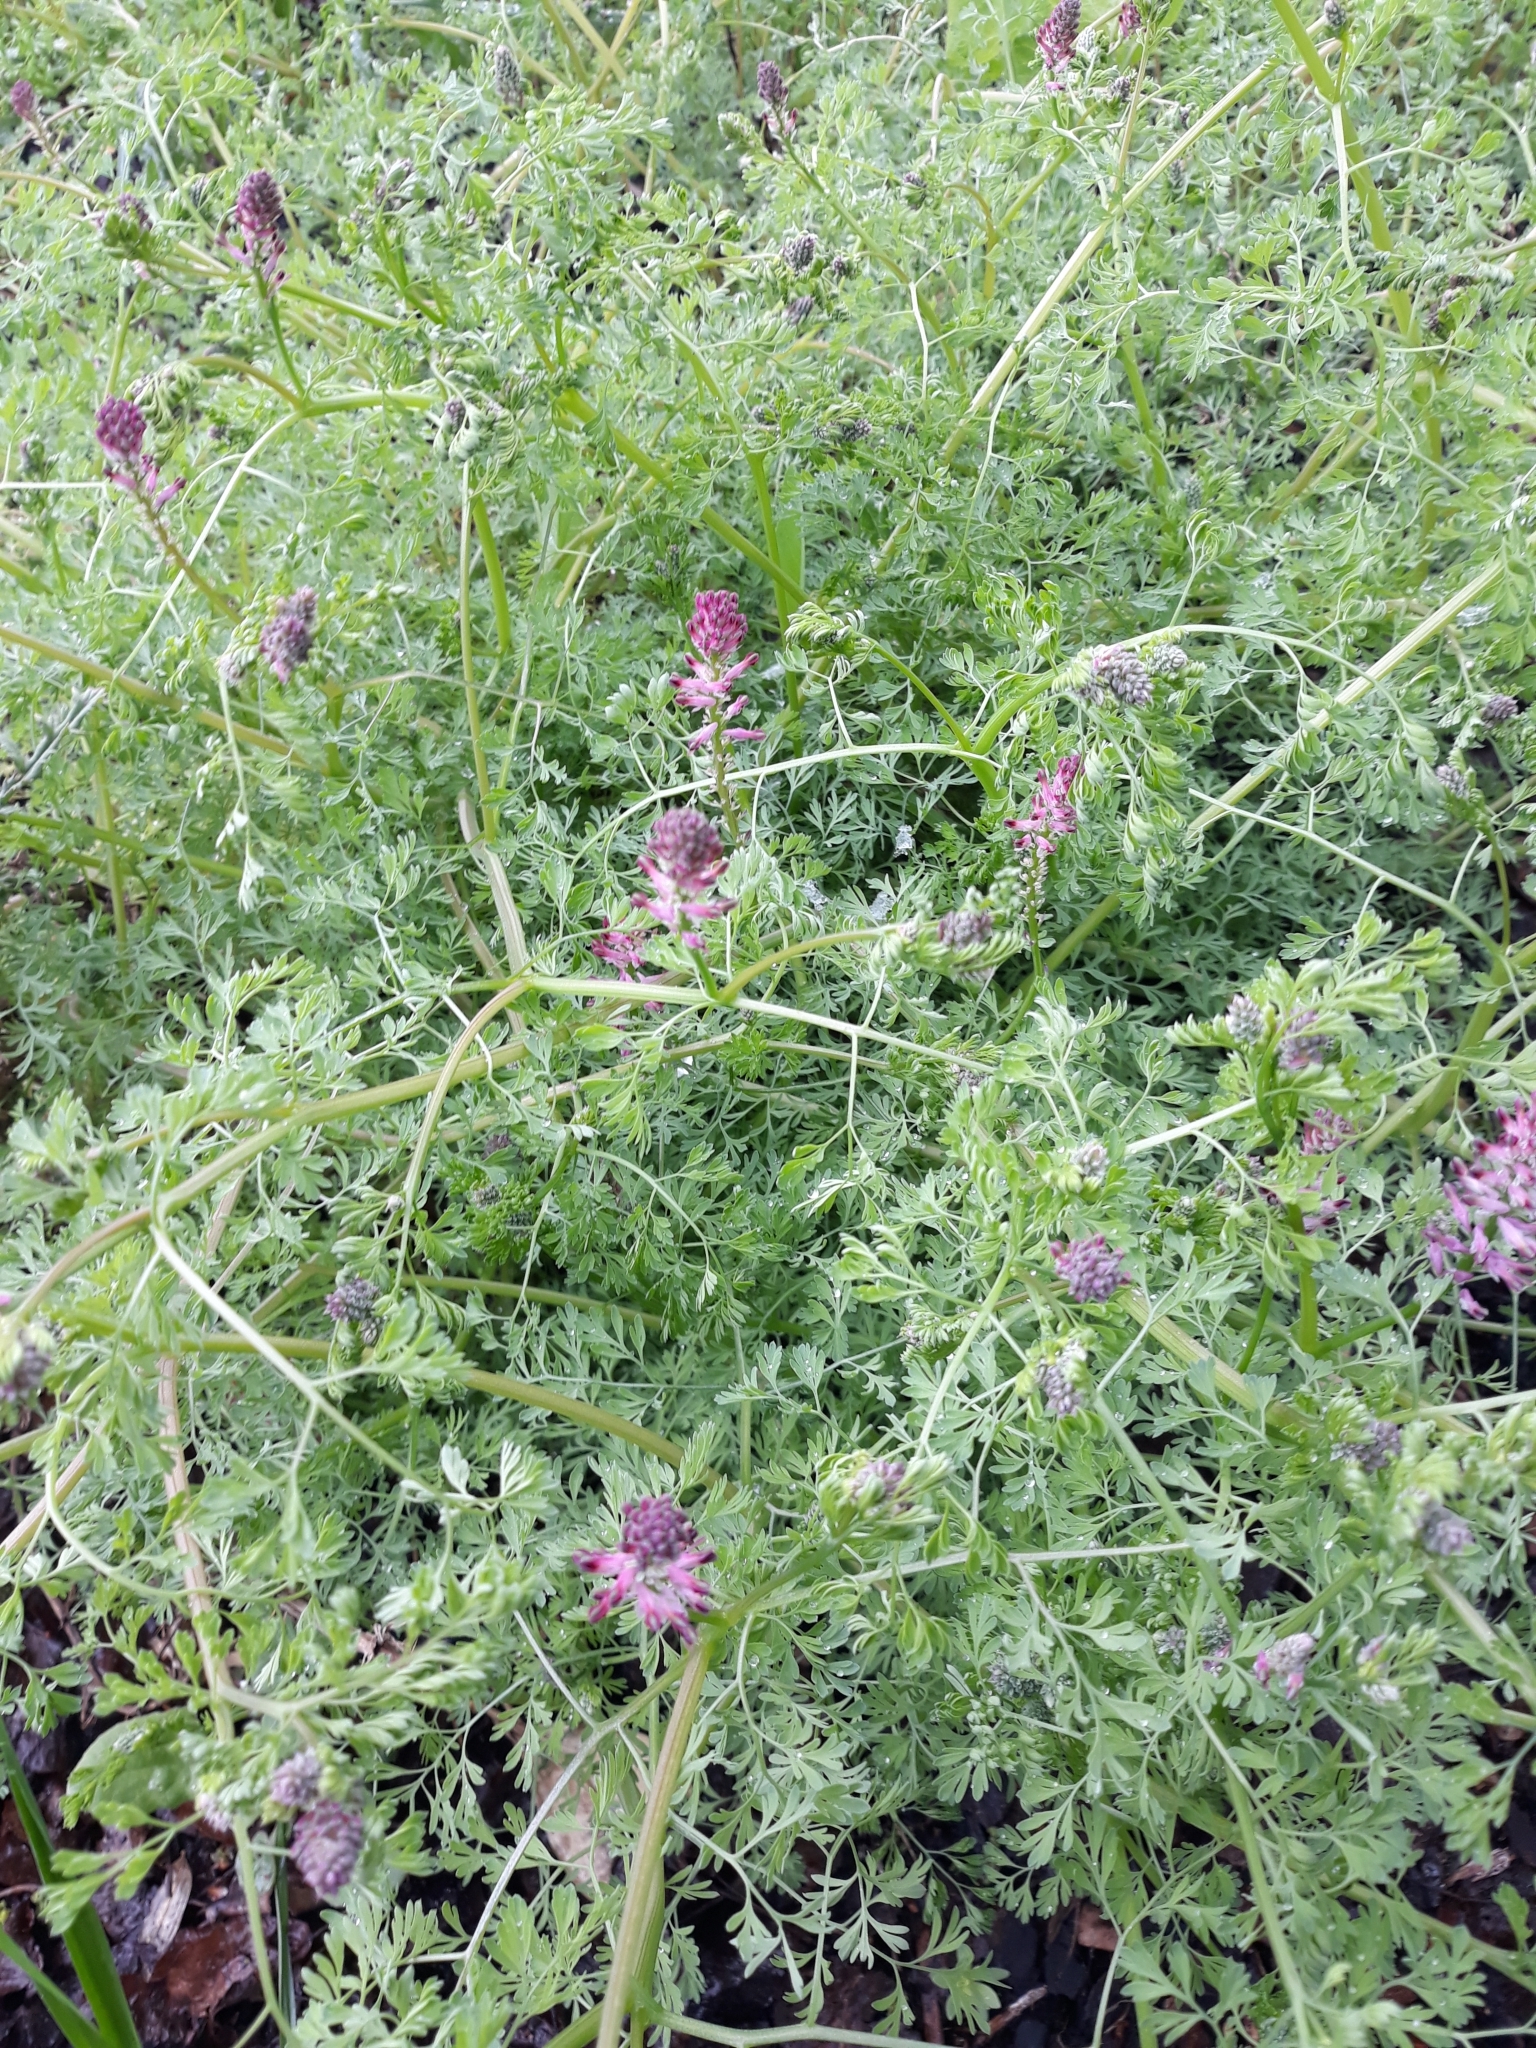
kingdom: Plantae
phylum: Tracheophyta
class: Magnoliopsida
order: Ranunculales
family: Papaveraceae
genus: Fumaria
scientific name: Fumaria officinalis
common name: Common fumitory
